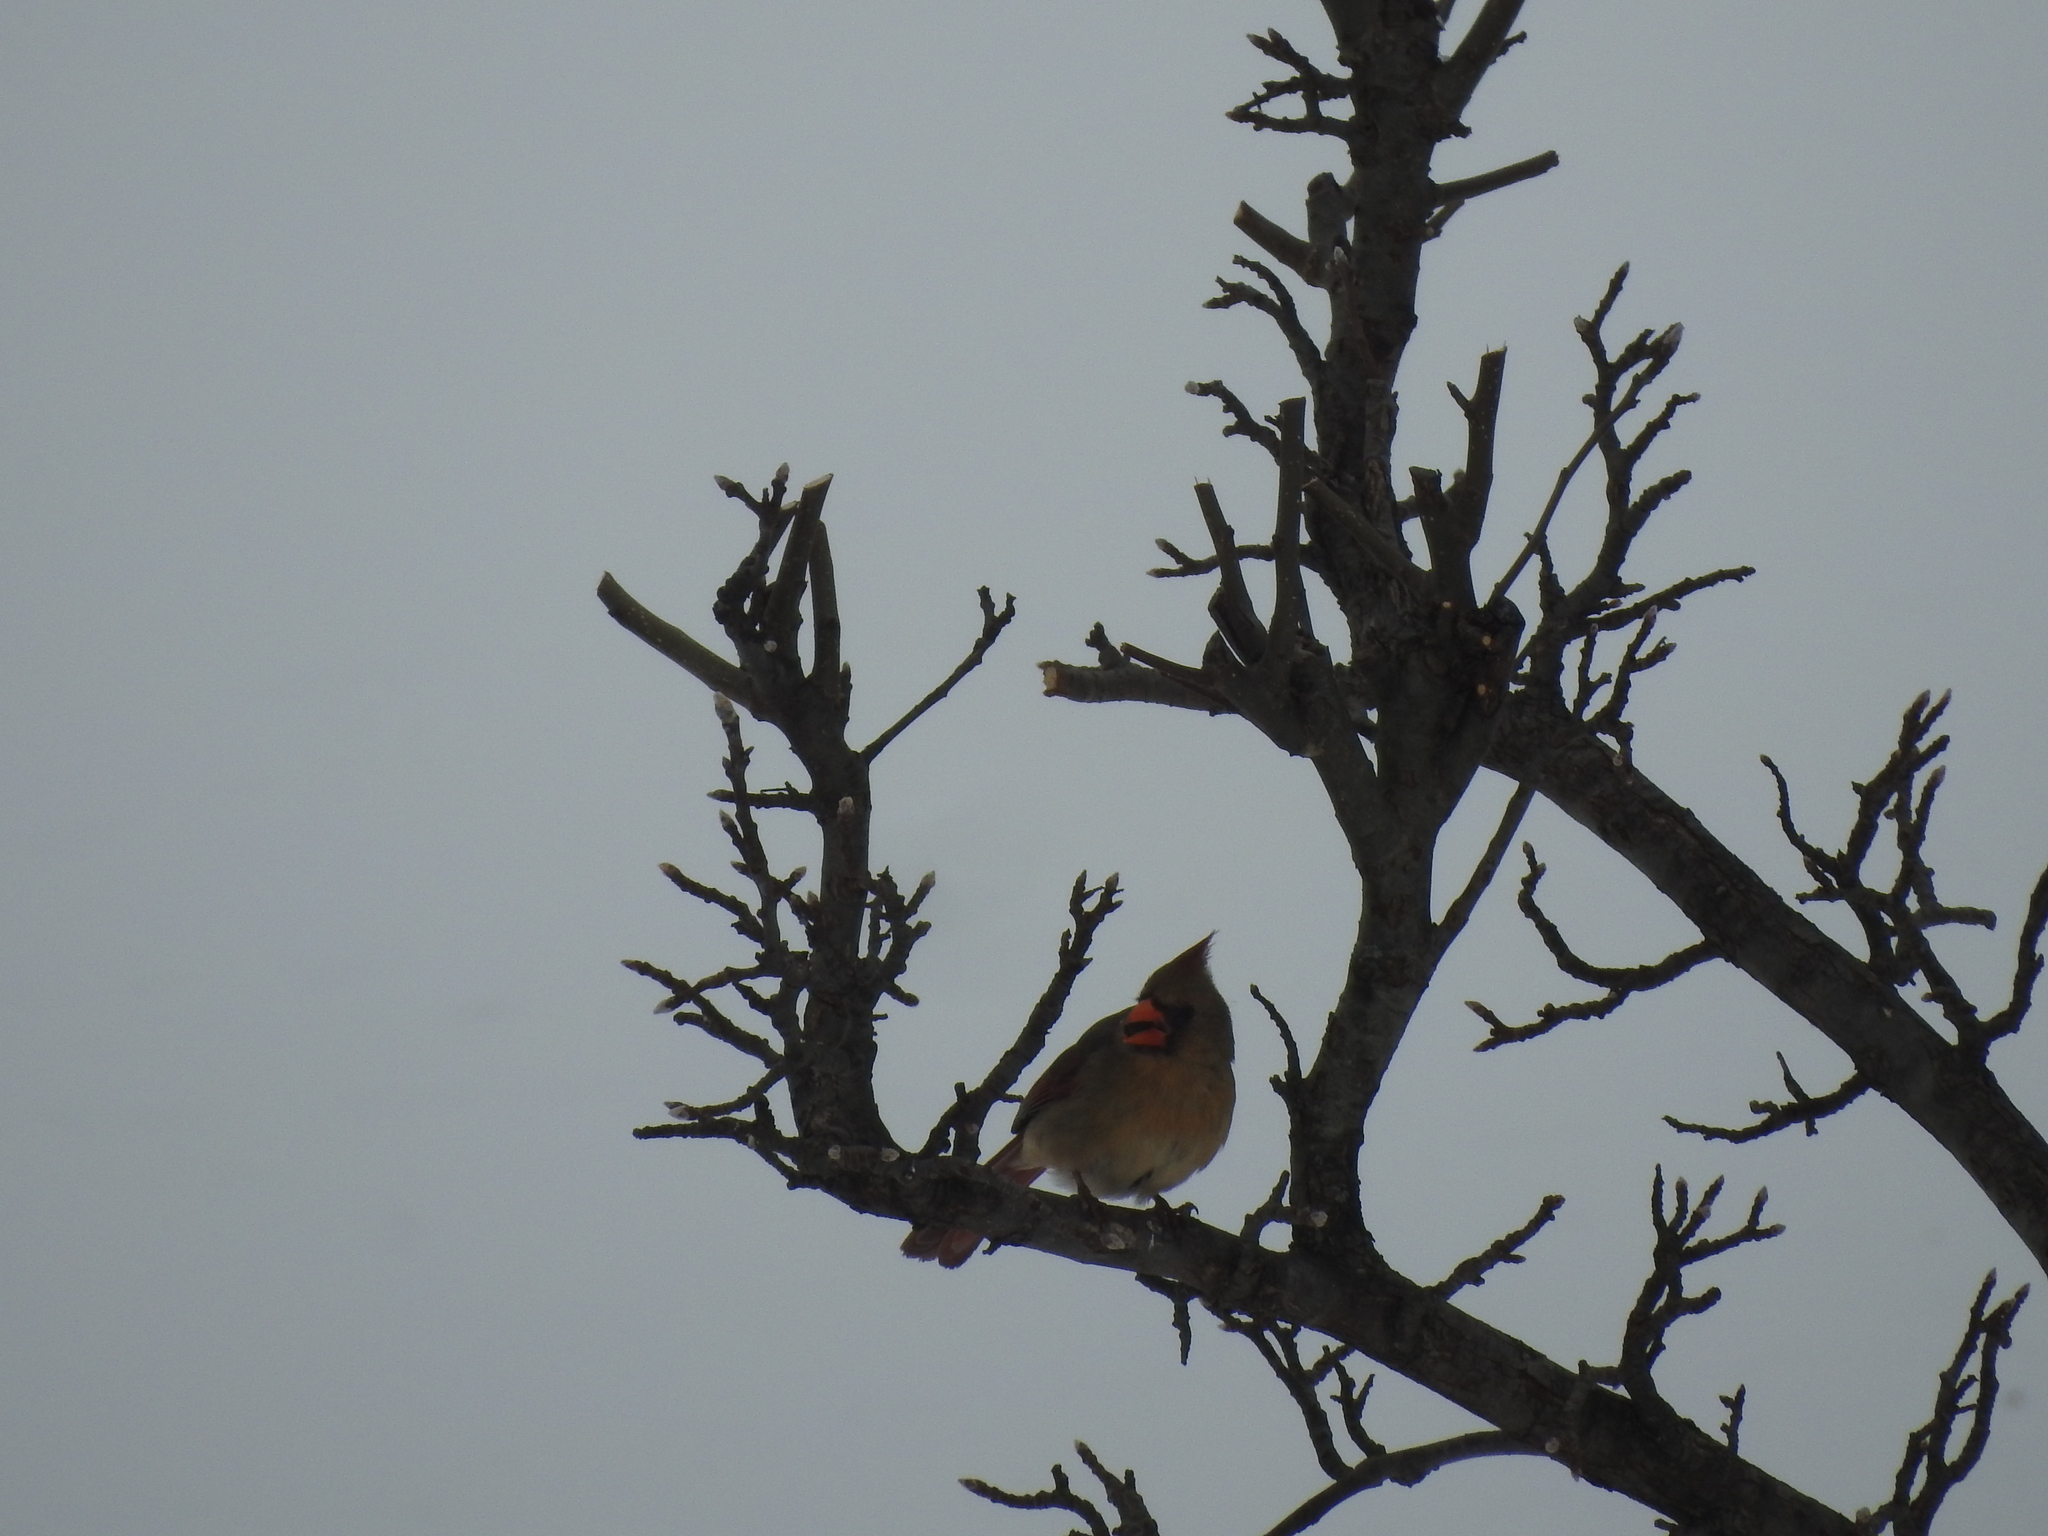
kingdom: Animalia
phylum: Chordata
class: Aves
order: Passeriformes
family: Cardinalidae
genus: Cardinalis
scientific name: Cardinalis cardinalis
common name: Northern cardinal
